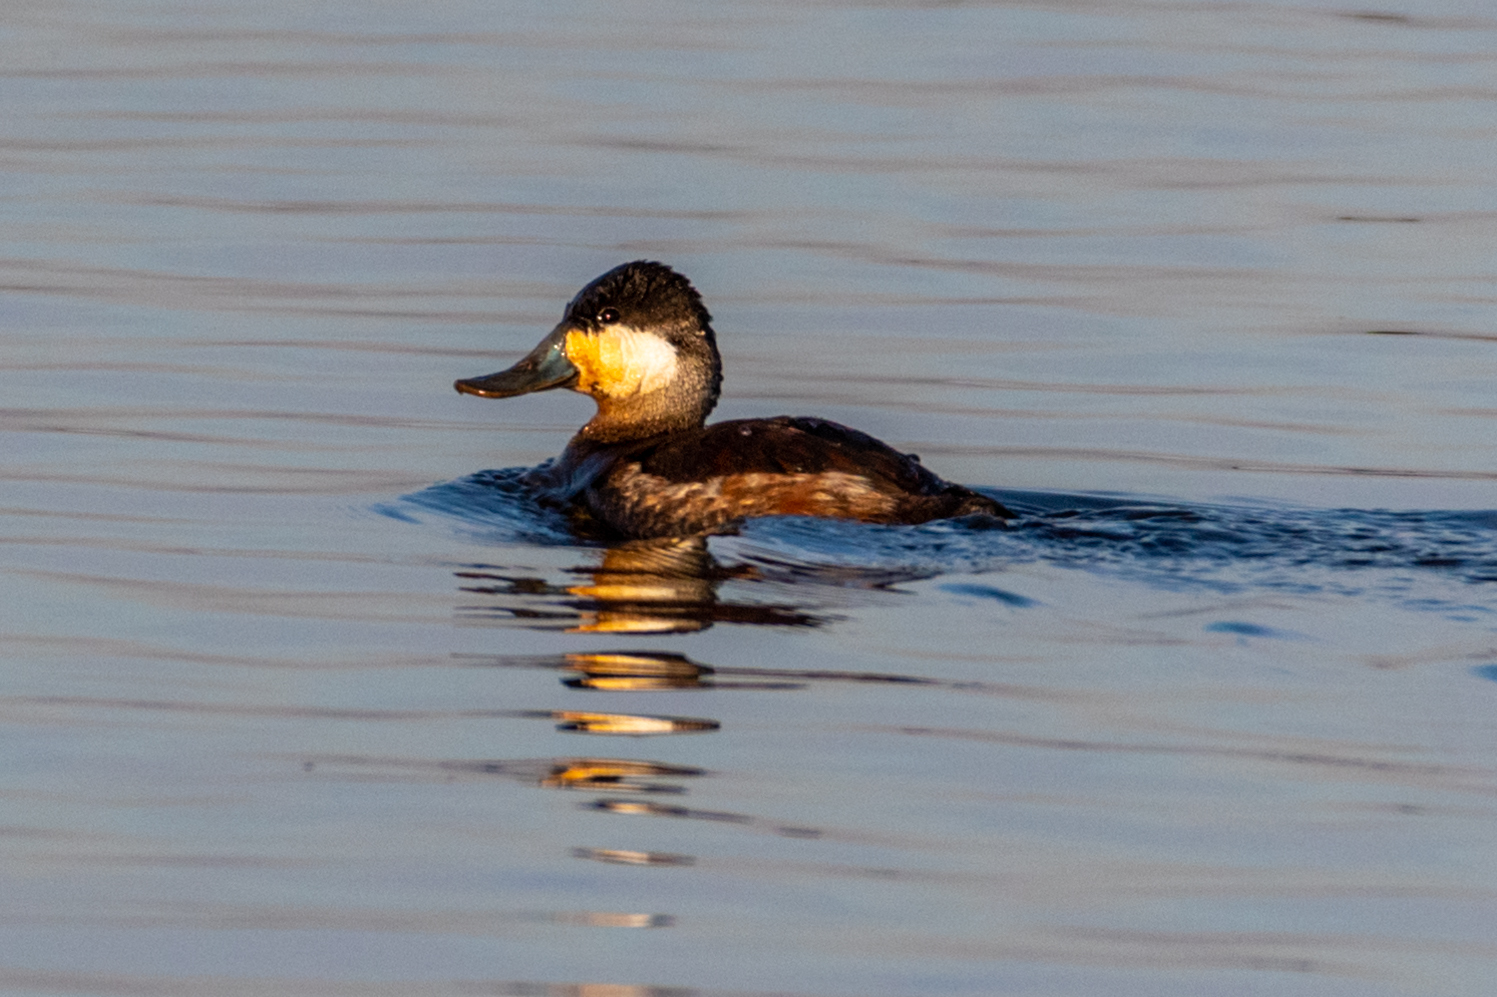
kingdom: Animalia
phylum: Chordata
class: Aves
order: Anseriformes
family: Anatidae
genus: Oxyura
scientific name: Oxyura jamaicensis
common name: Ruddy duck
